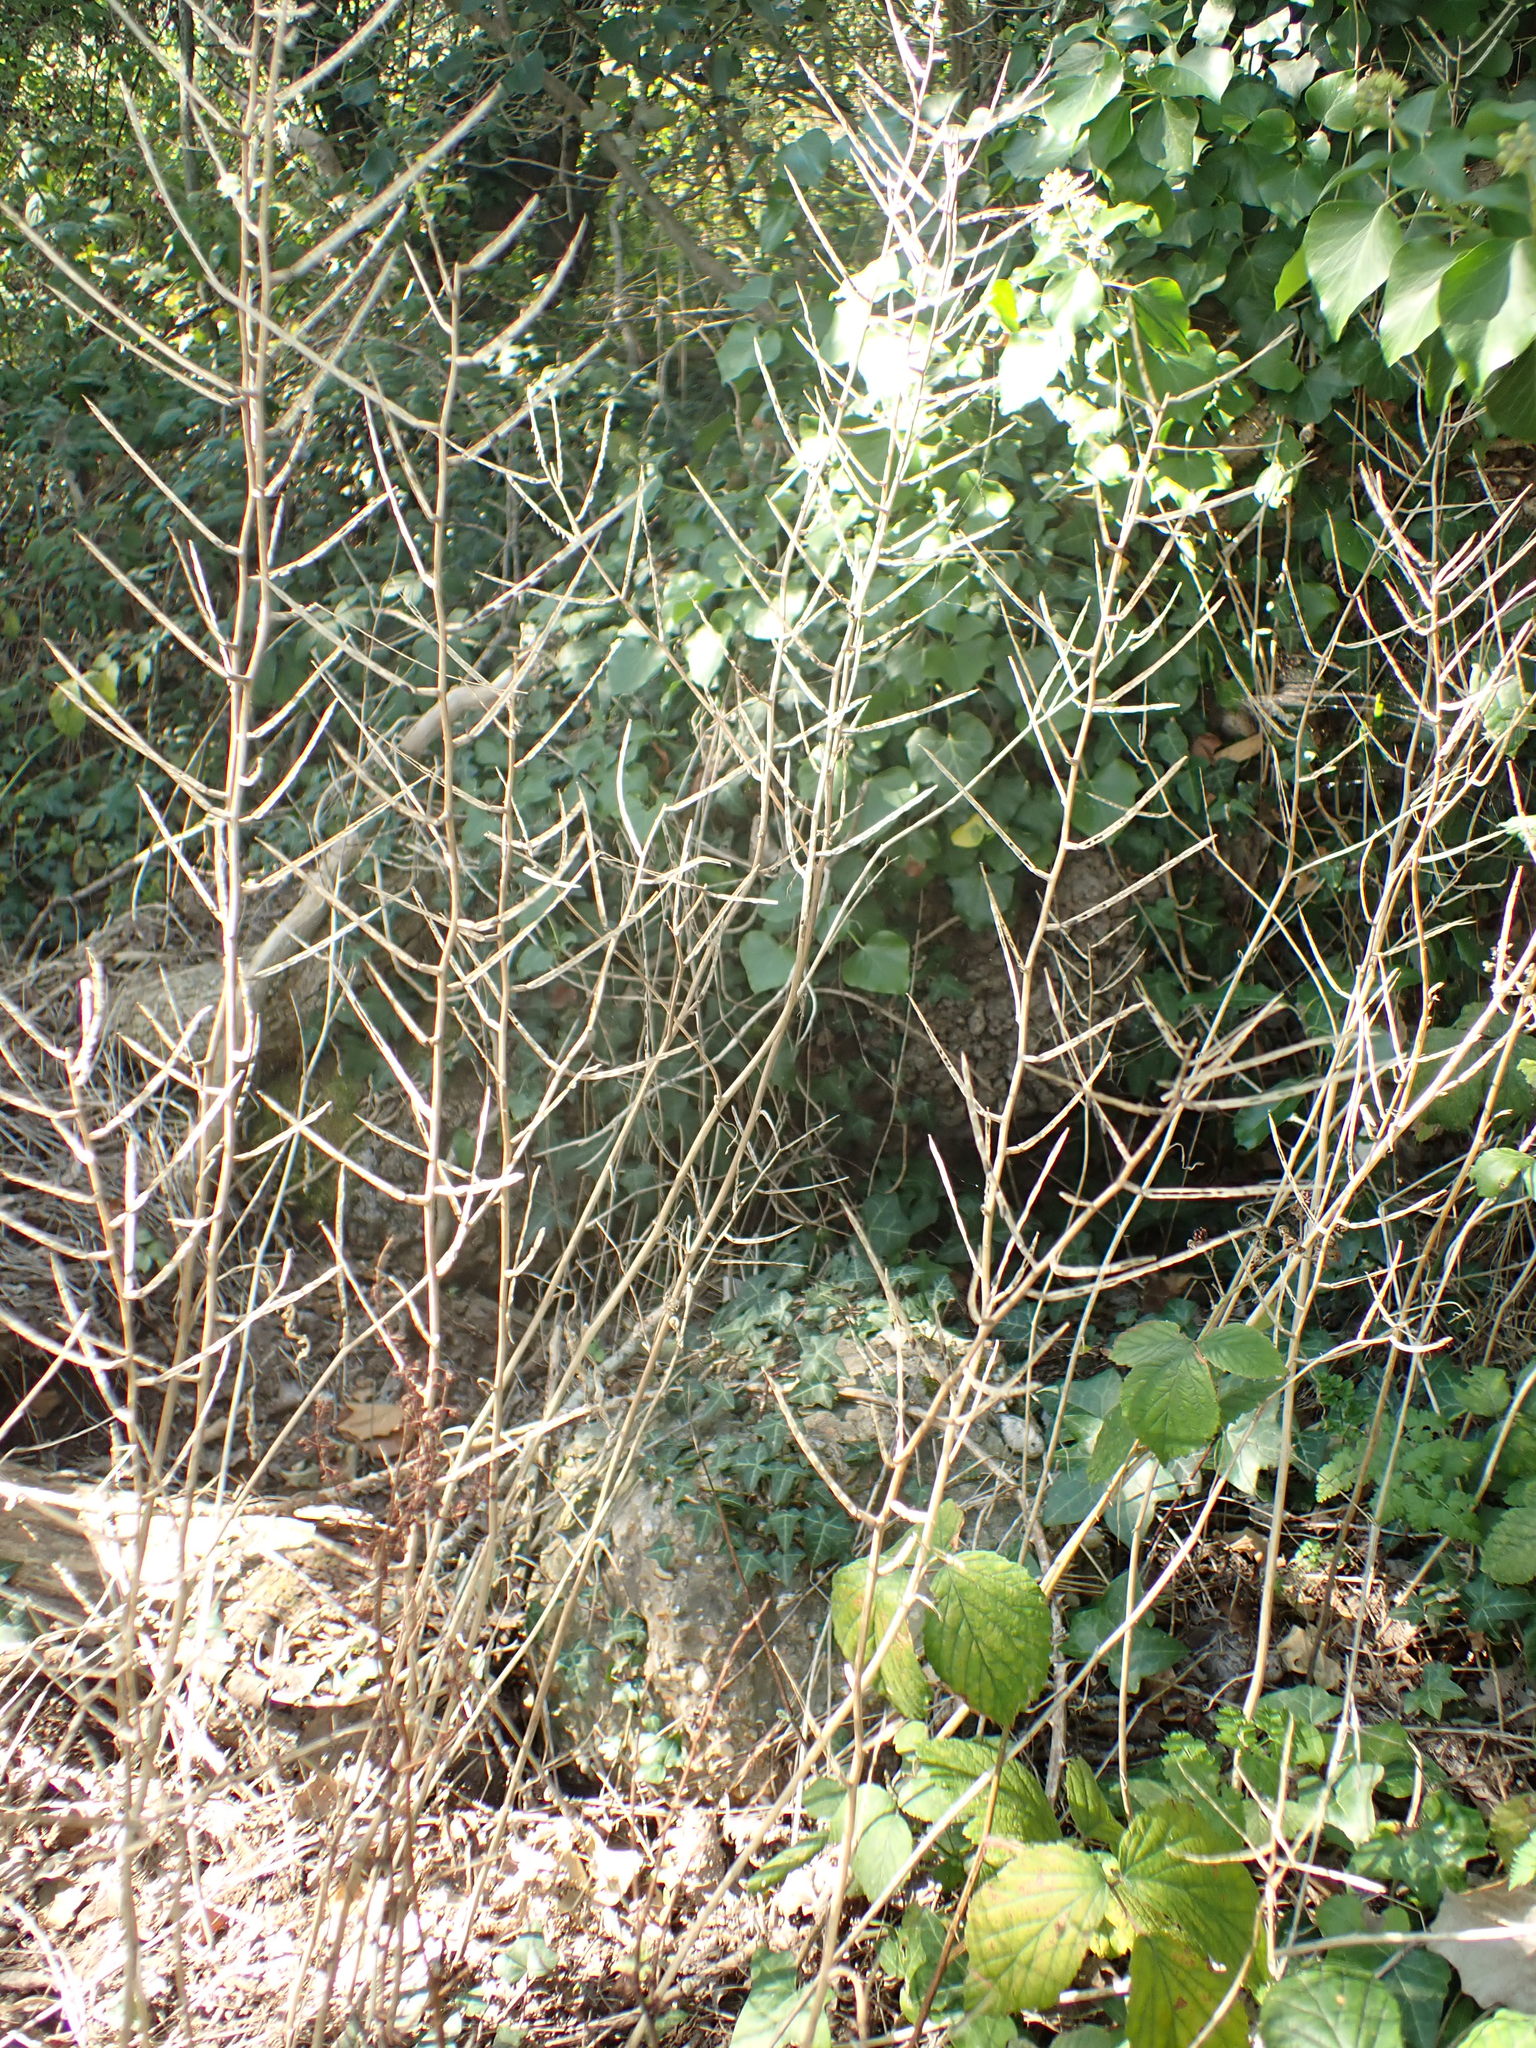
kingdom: Plantae
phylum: Tracheophyta
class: Magnoliopsida
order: Brassicales
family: Brassicaceae
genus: Alliaria
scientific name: Alliaria petiolata
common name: Garlic mustard
